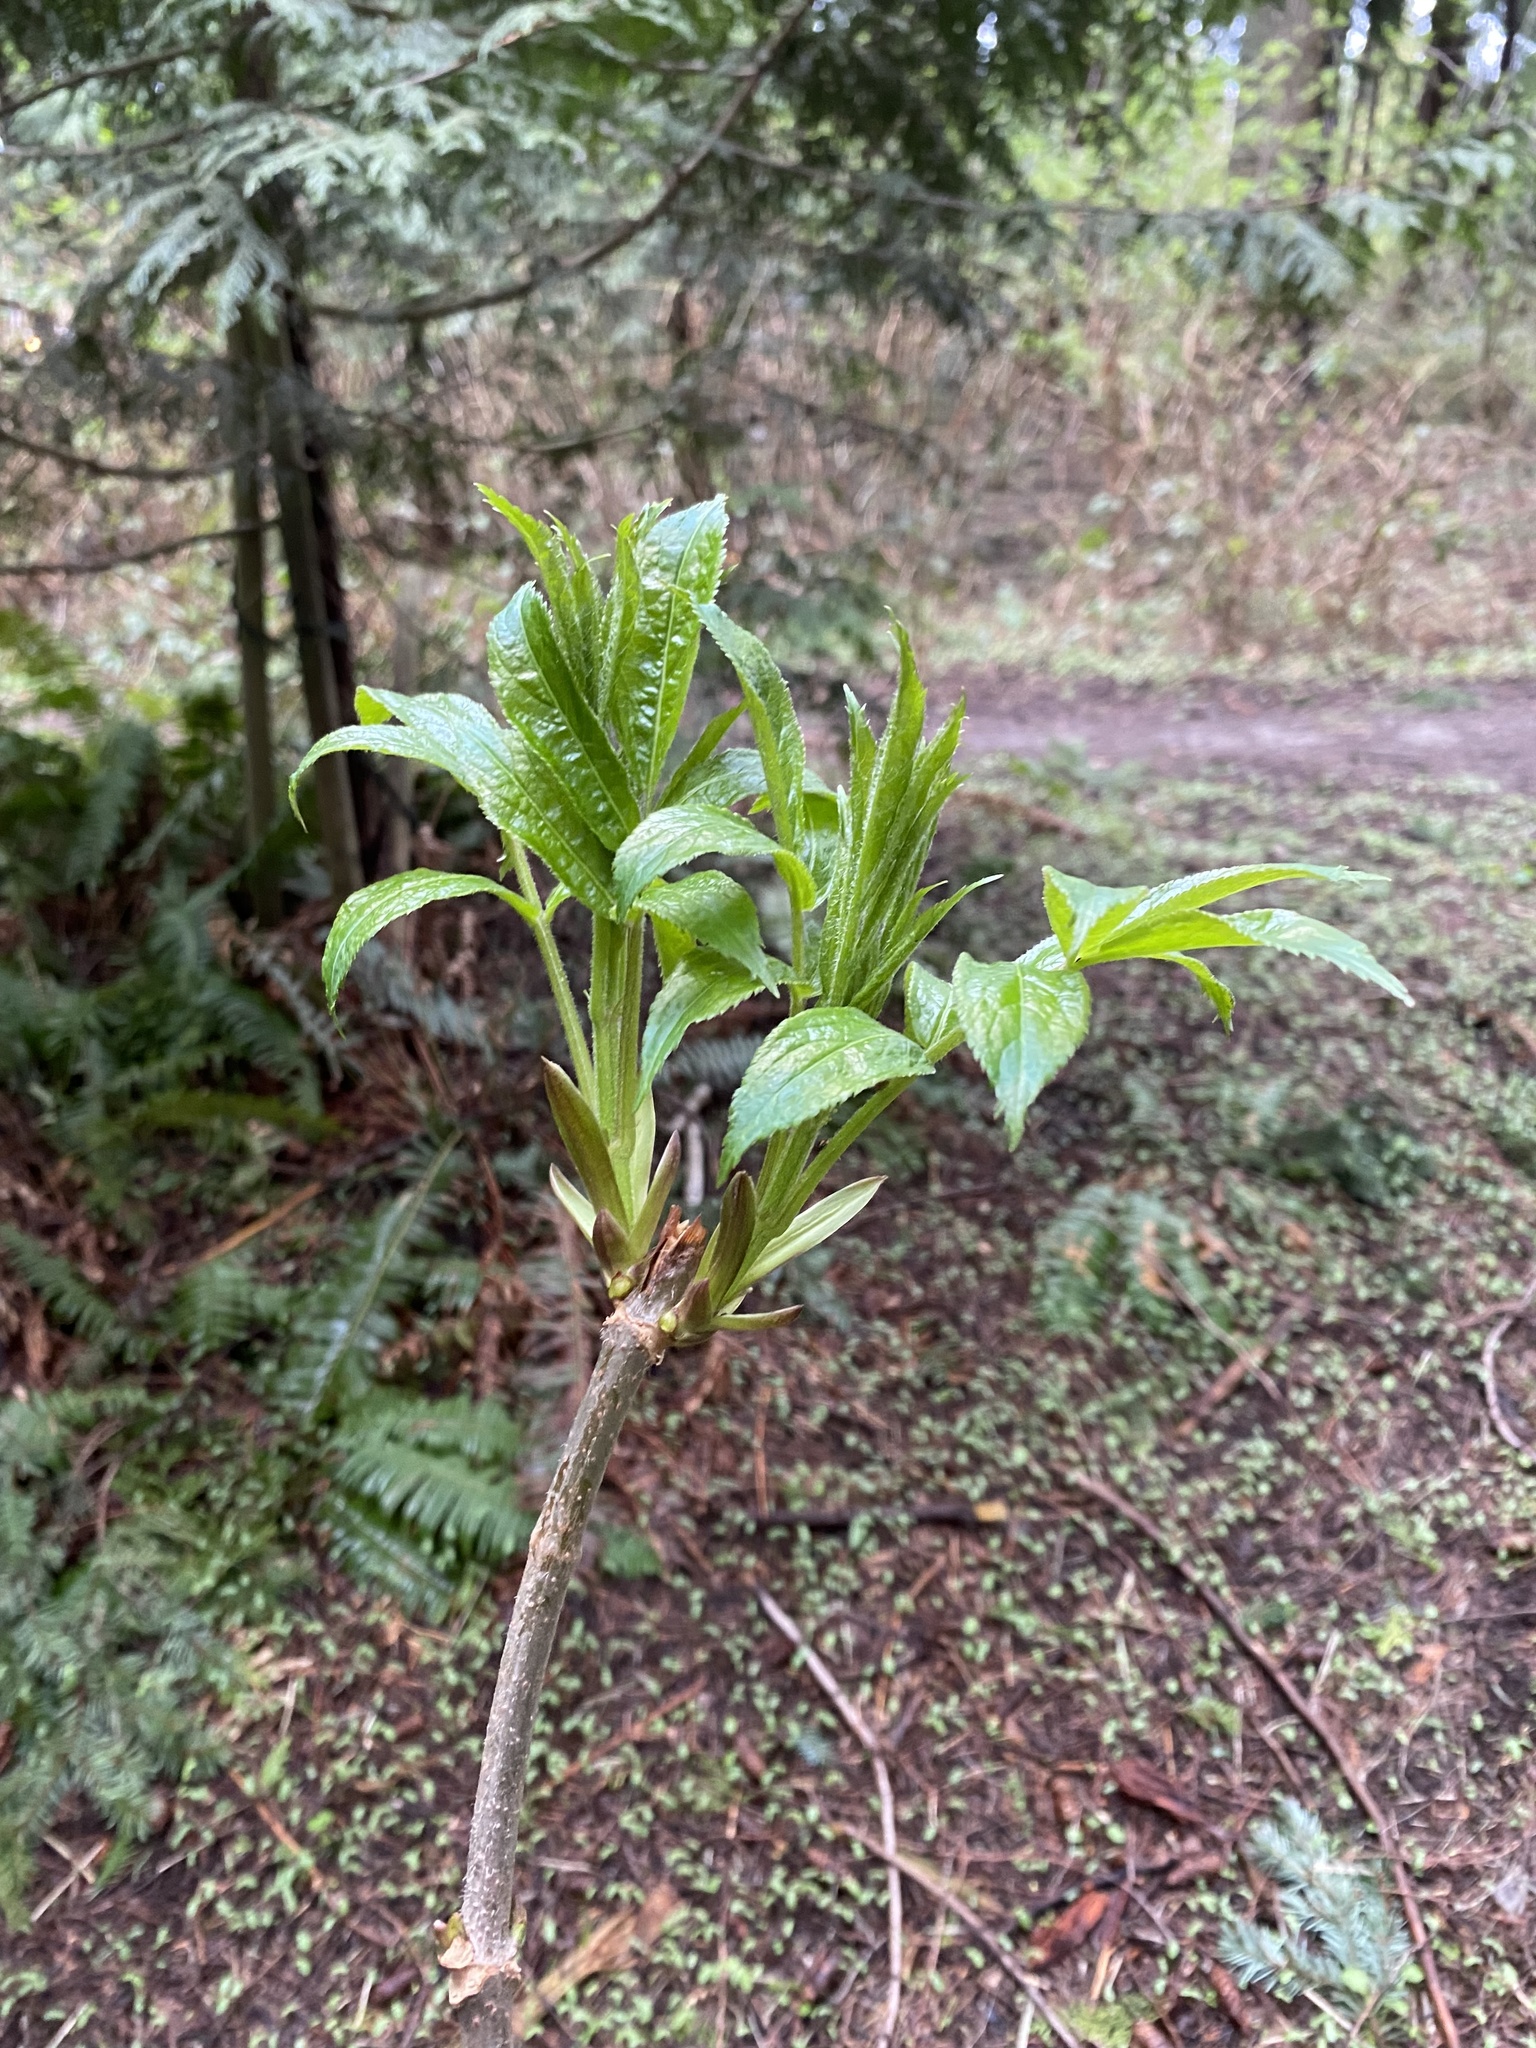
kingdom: Plantae
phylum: Tracheophyta
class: Magnoliopsida
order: Dipsacales
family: Viburnaceae
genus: Sambucus
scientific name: Sambucus racemosa
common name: Red-berried elder
